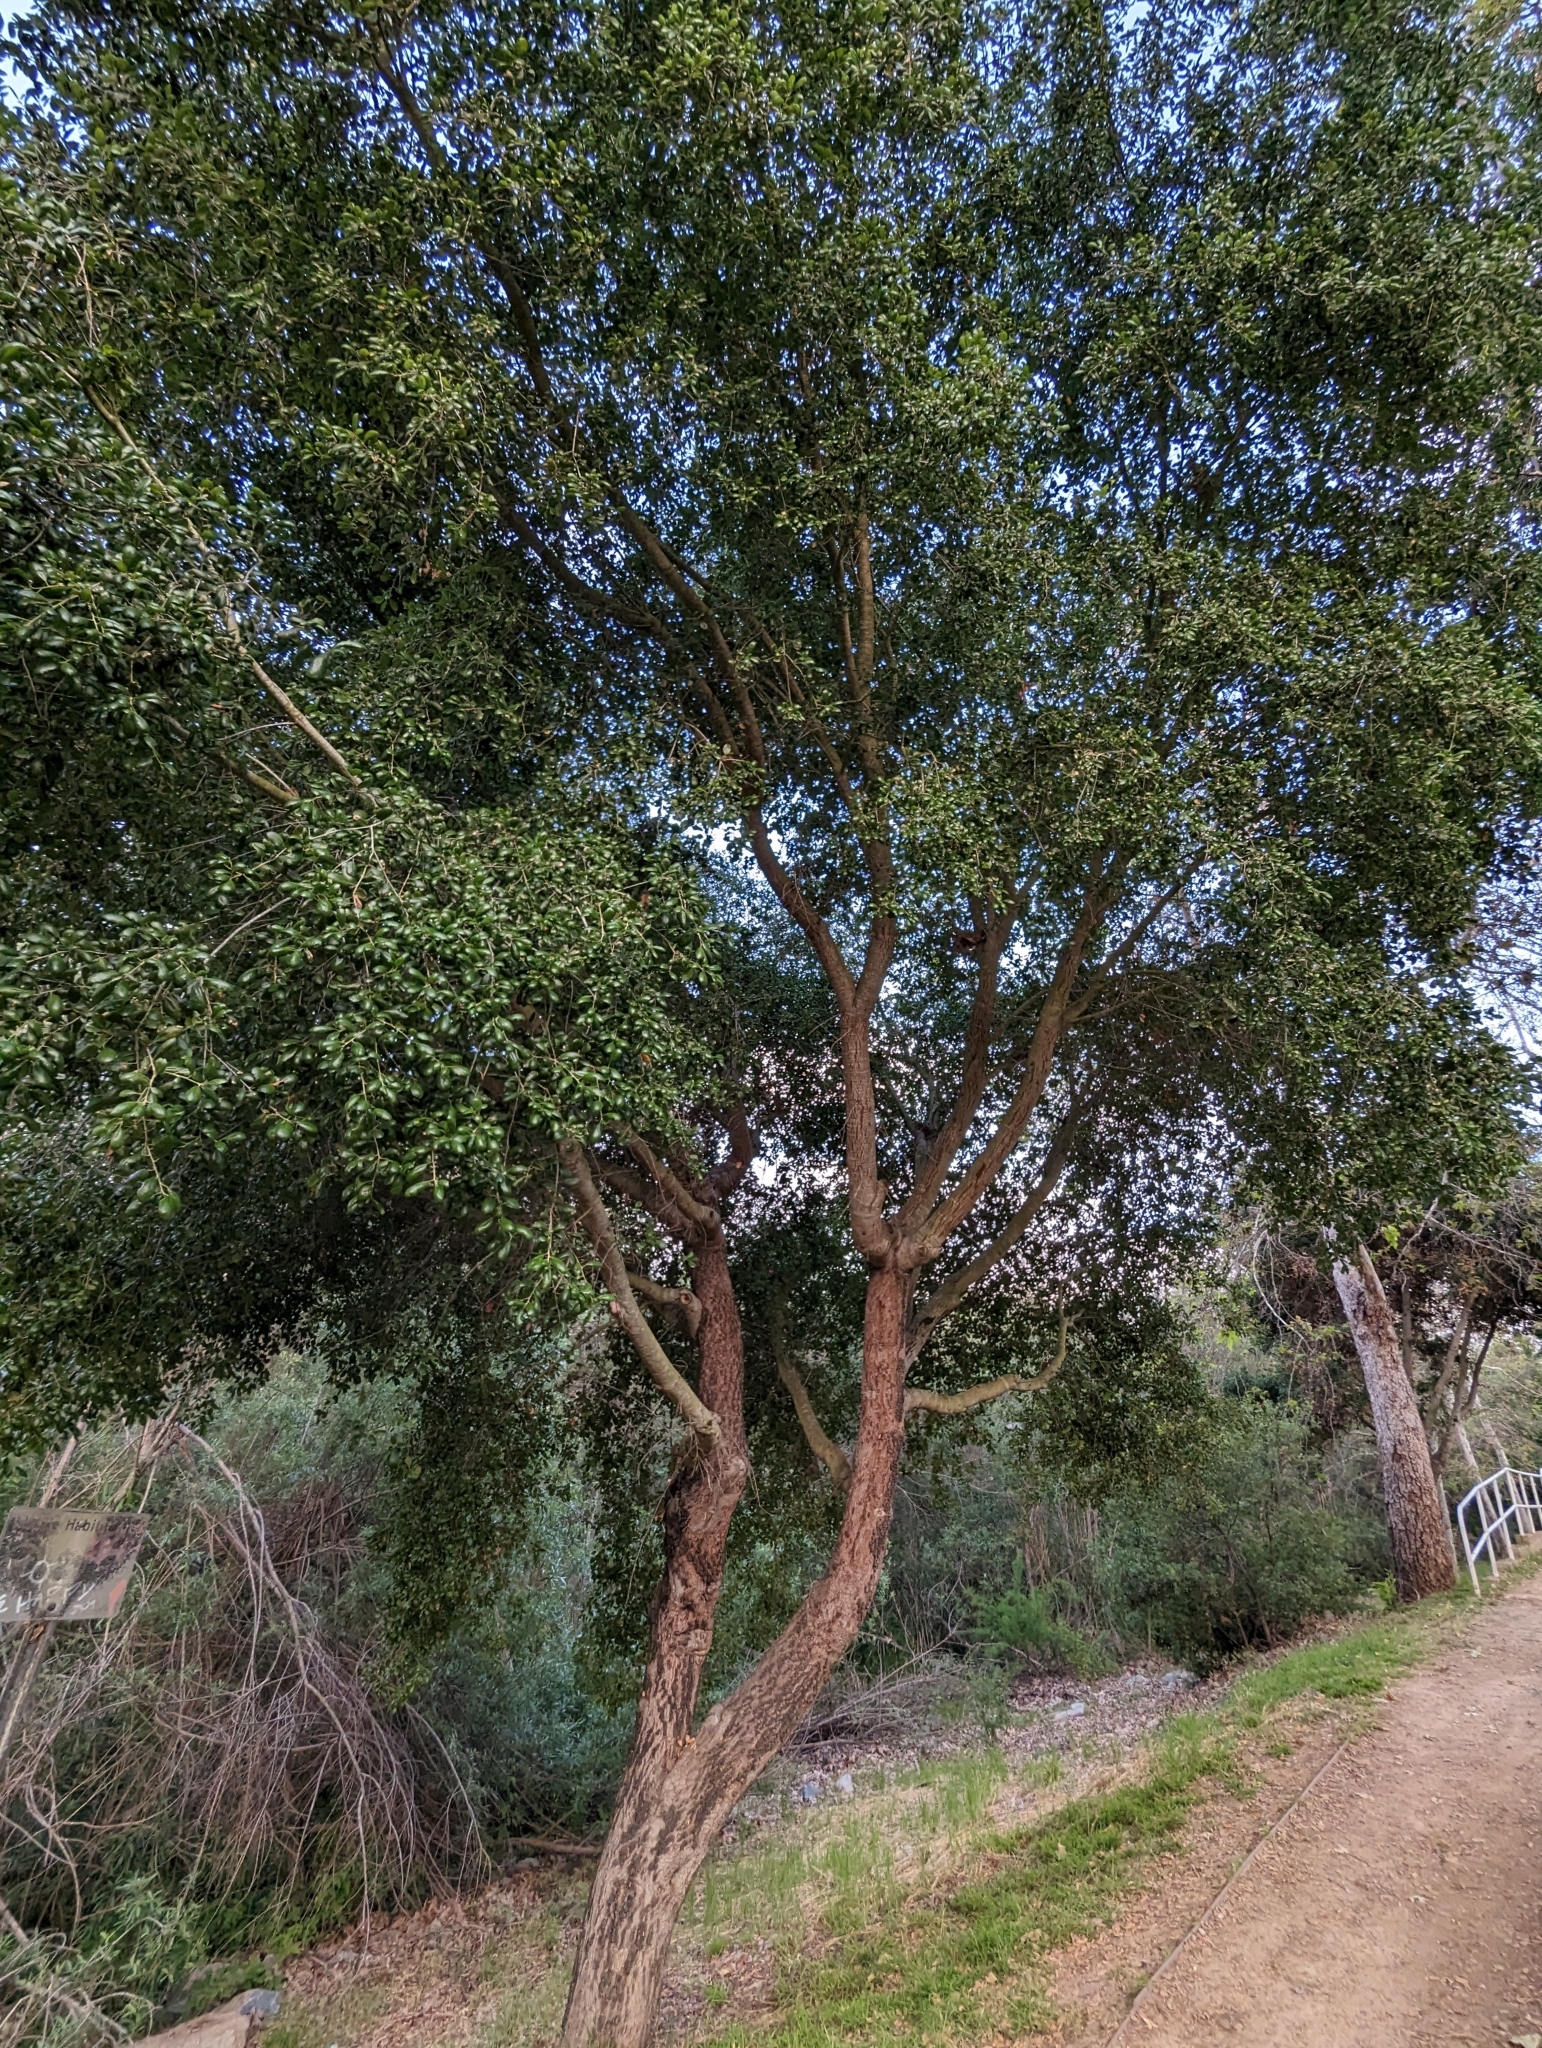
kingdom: Plantae
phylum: Tracheophyta
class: Magnoliopsida
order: Fagales
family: Fagaceae
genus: Quercus
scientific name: Quercus agrifolia
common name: California live oak
